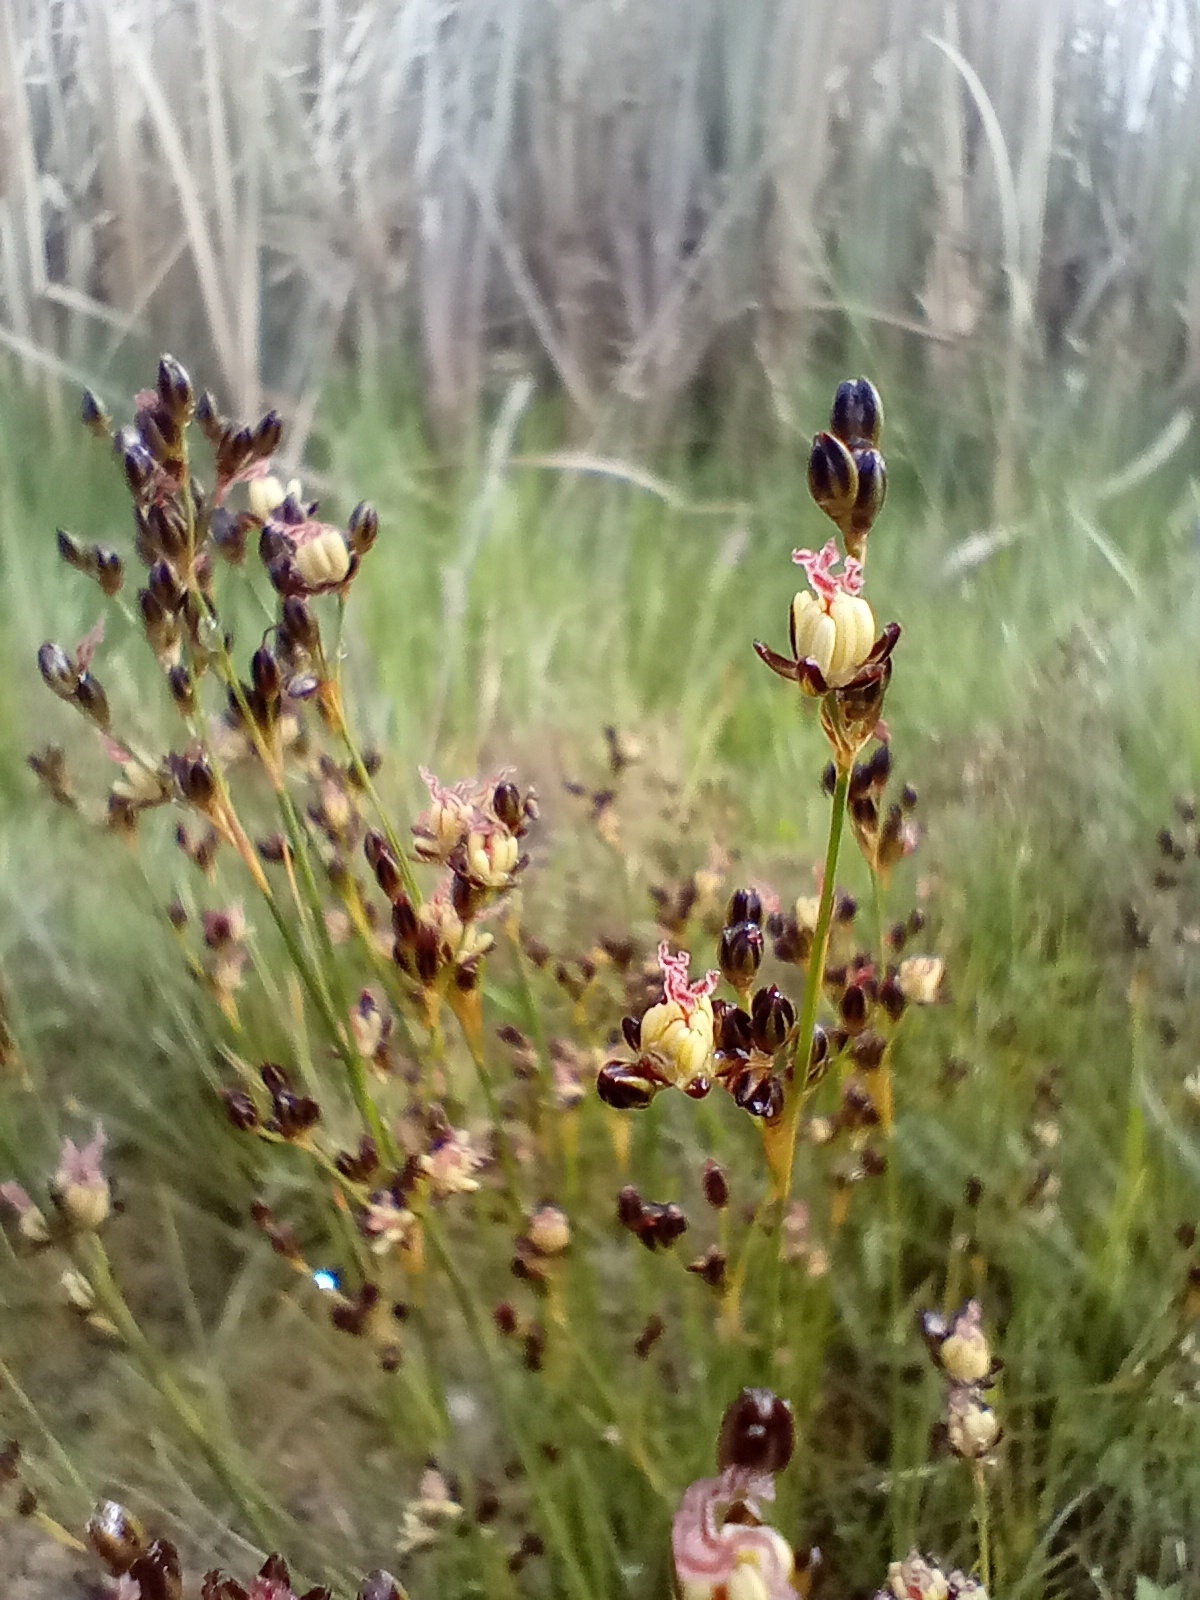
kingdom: Plantae
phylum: Tracheophyta
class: Liliopsida
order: Poales
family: Juncaceae
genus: Juncus
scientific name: Juncus gerardi
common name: Saltmarsh rush
